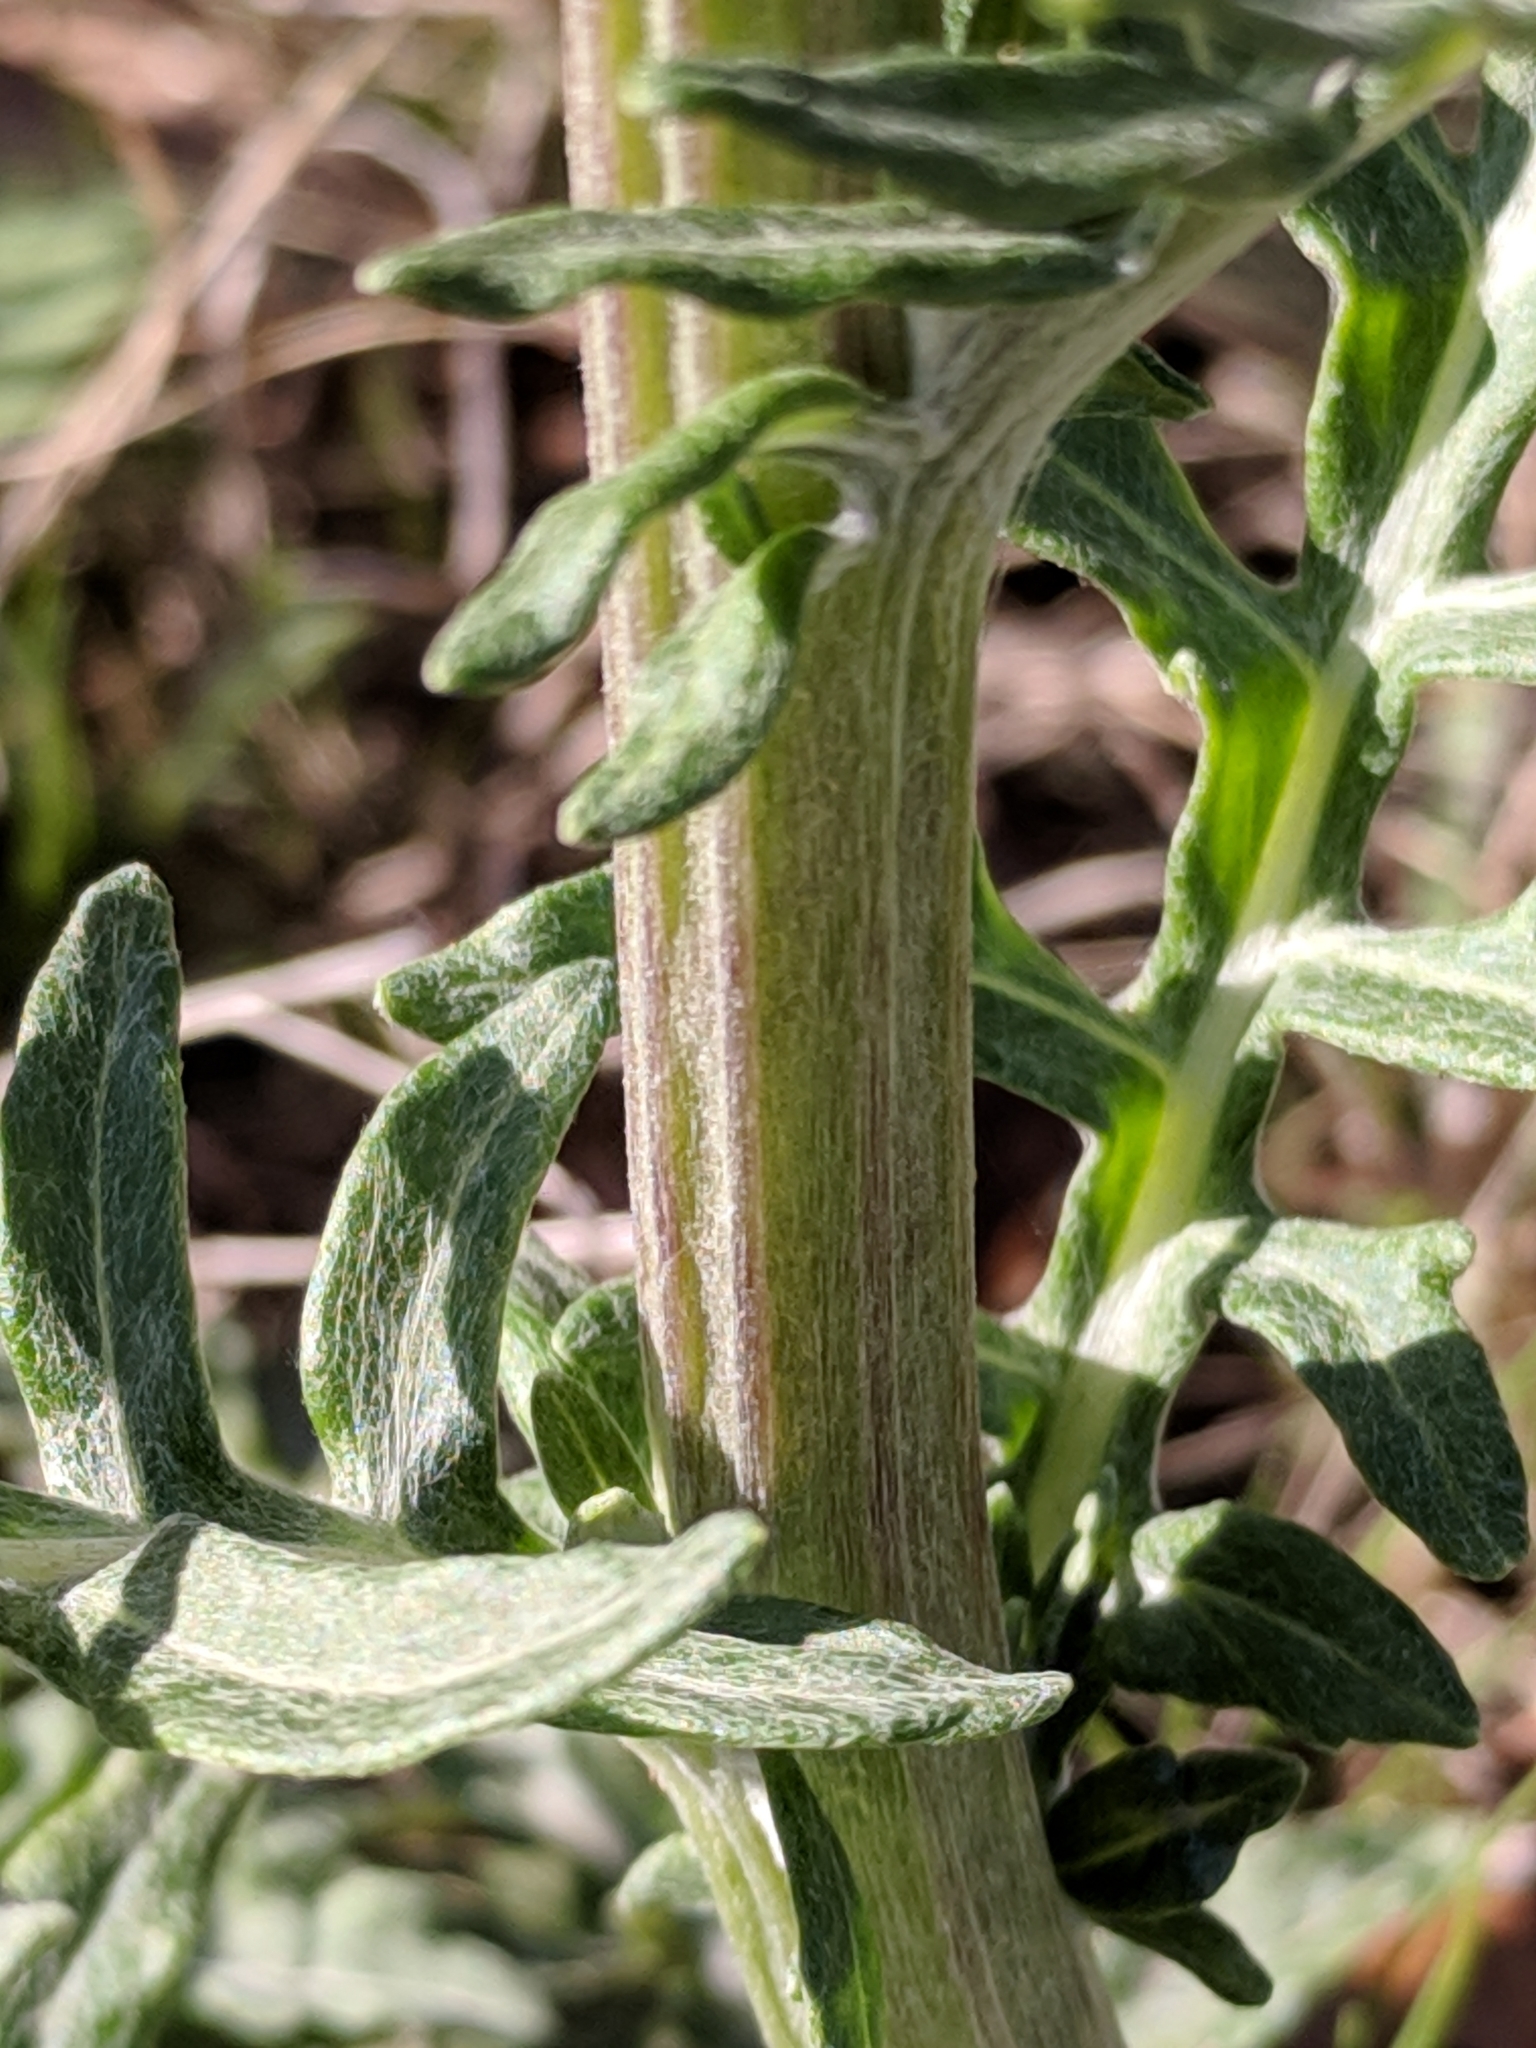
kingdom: Plantae
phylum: Tracheophyta
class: Magnoliopsida
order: Asterales
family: Asteraceae
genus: Hymenopappus
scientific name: Hymenopappus artemisiifolius
